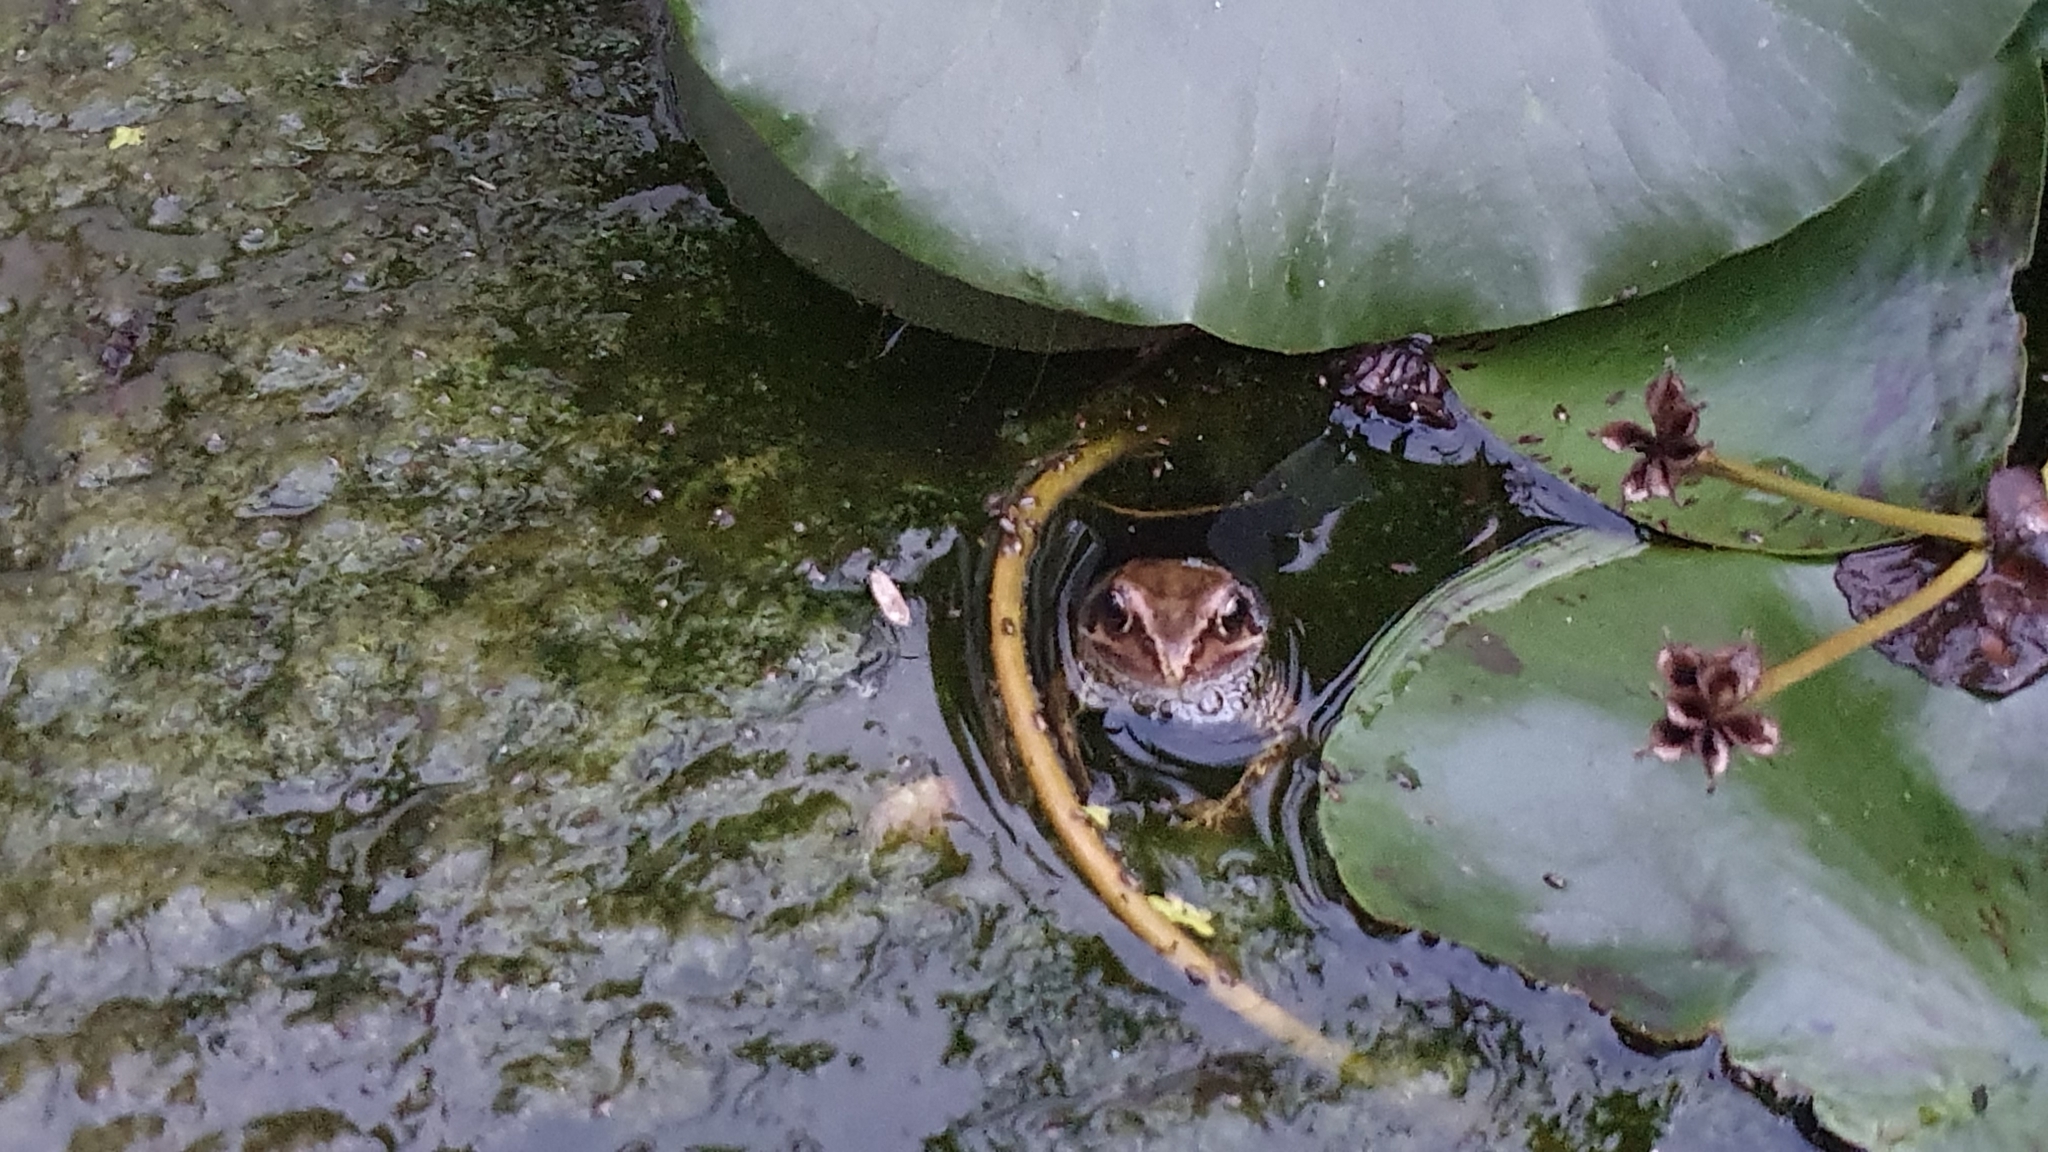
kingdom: Animalia
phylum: Chordata
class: Amphibia
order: Anura
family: Ranidae
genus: Rana
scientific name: Rana temporaria
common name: Common frog
